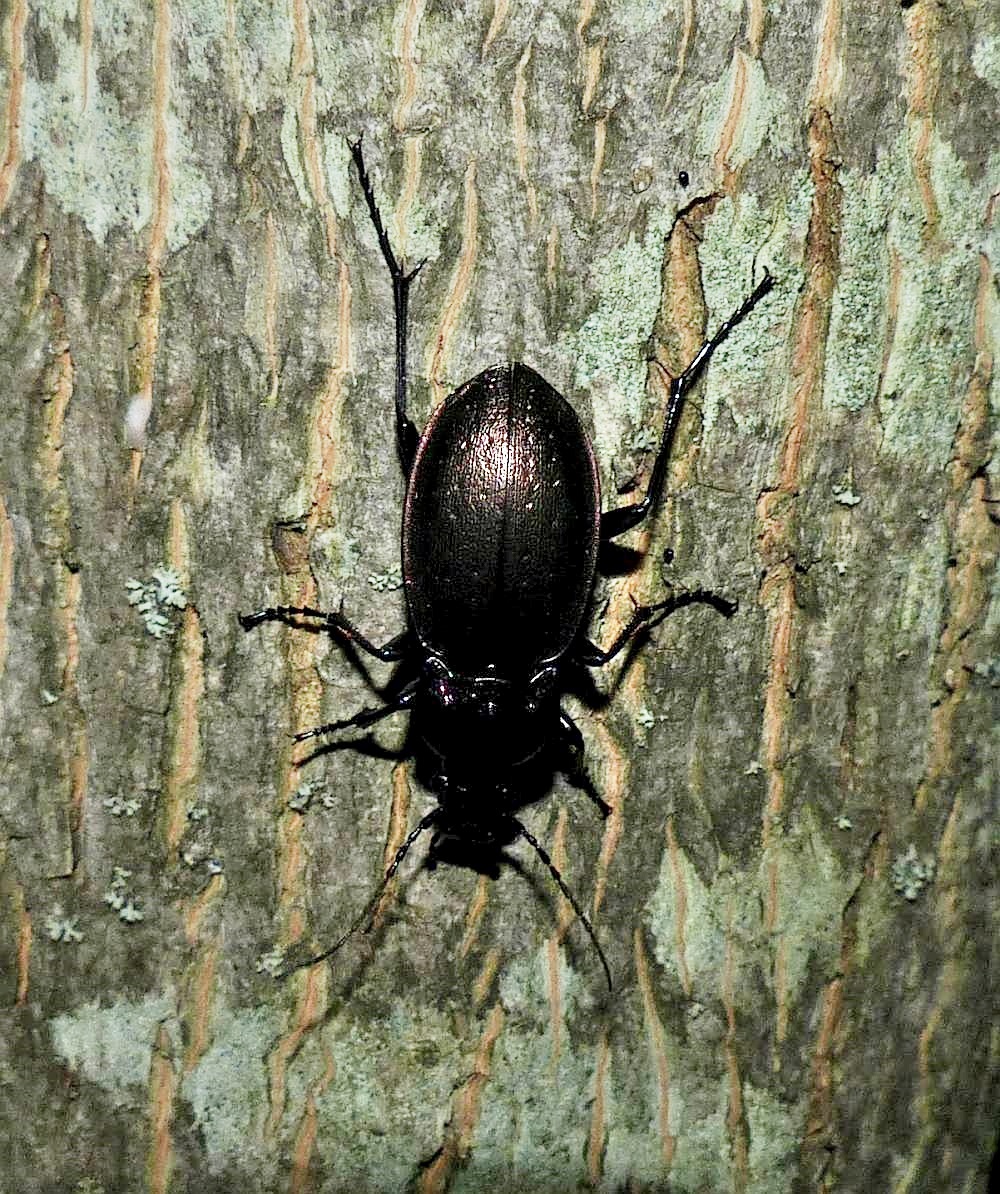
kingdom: Animalia
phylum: Arthropoda
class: Insecta
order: Coleoptera
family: Carabidae
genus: Carabus
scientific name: Carabus nemoralis
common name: European ground beetle
